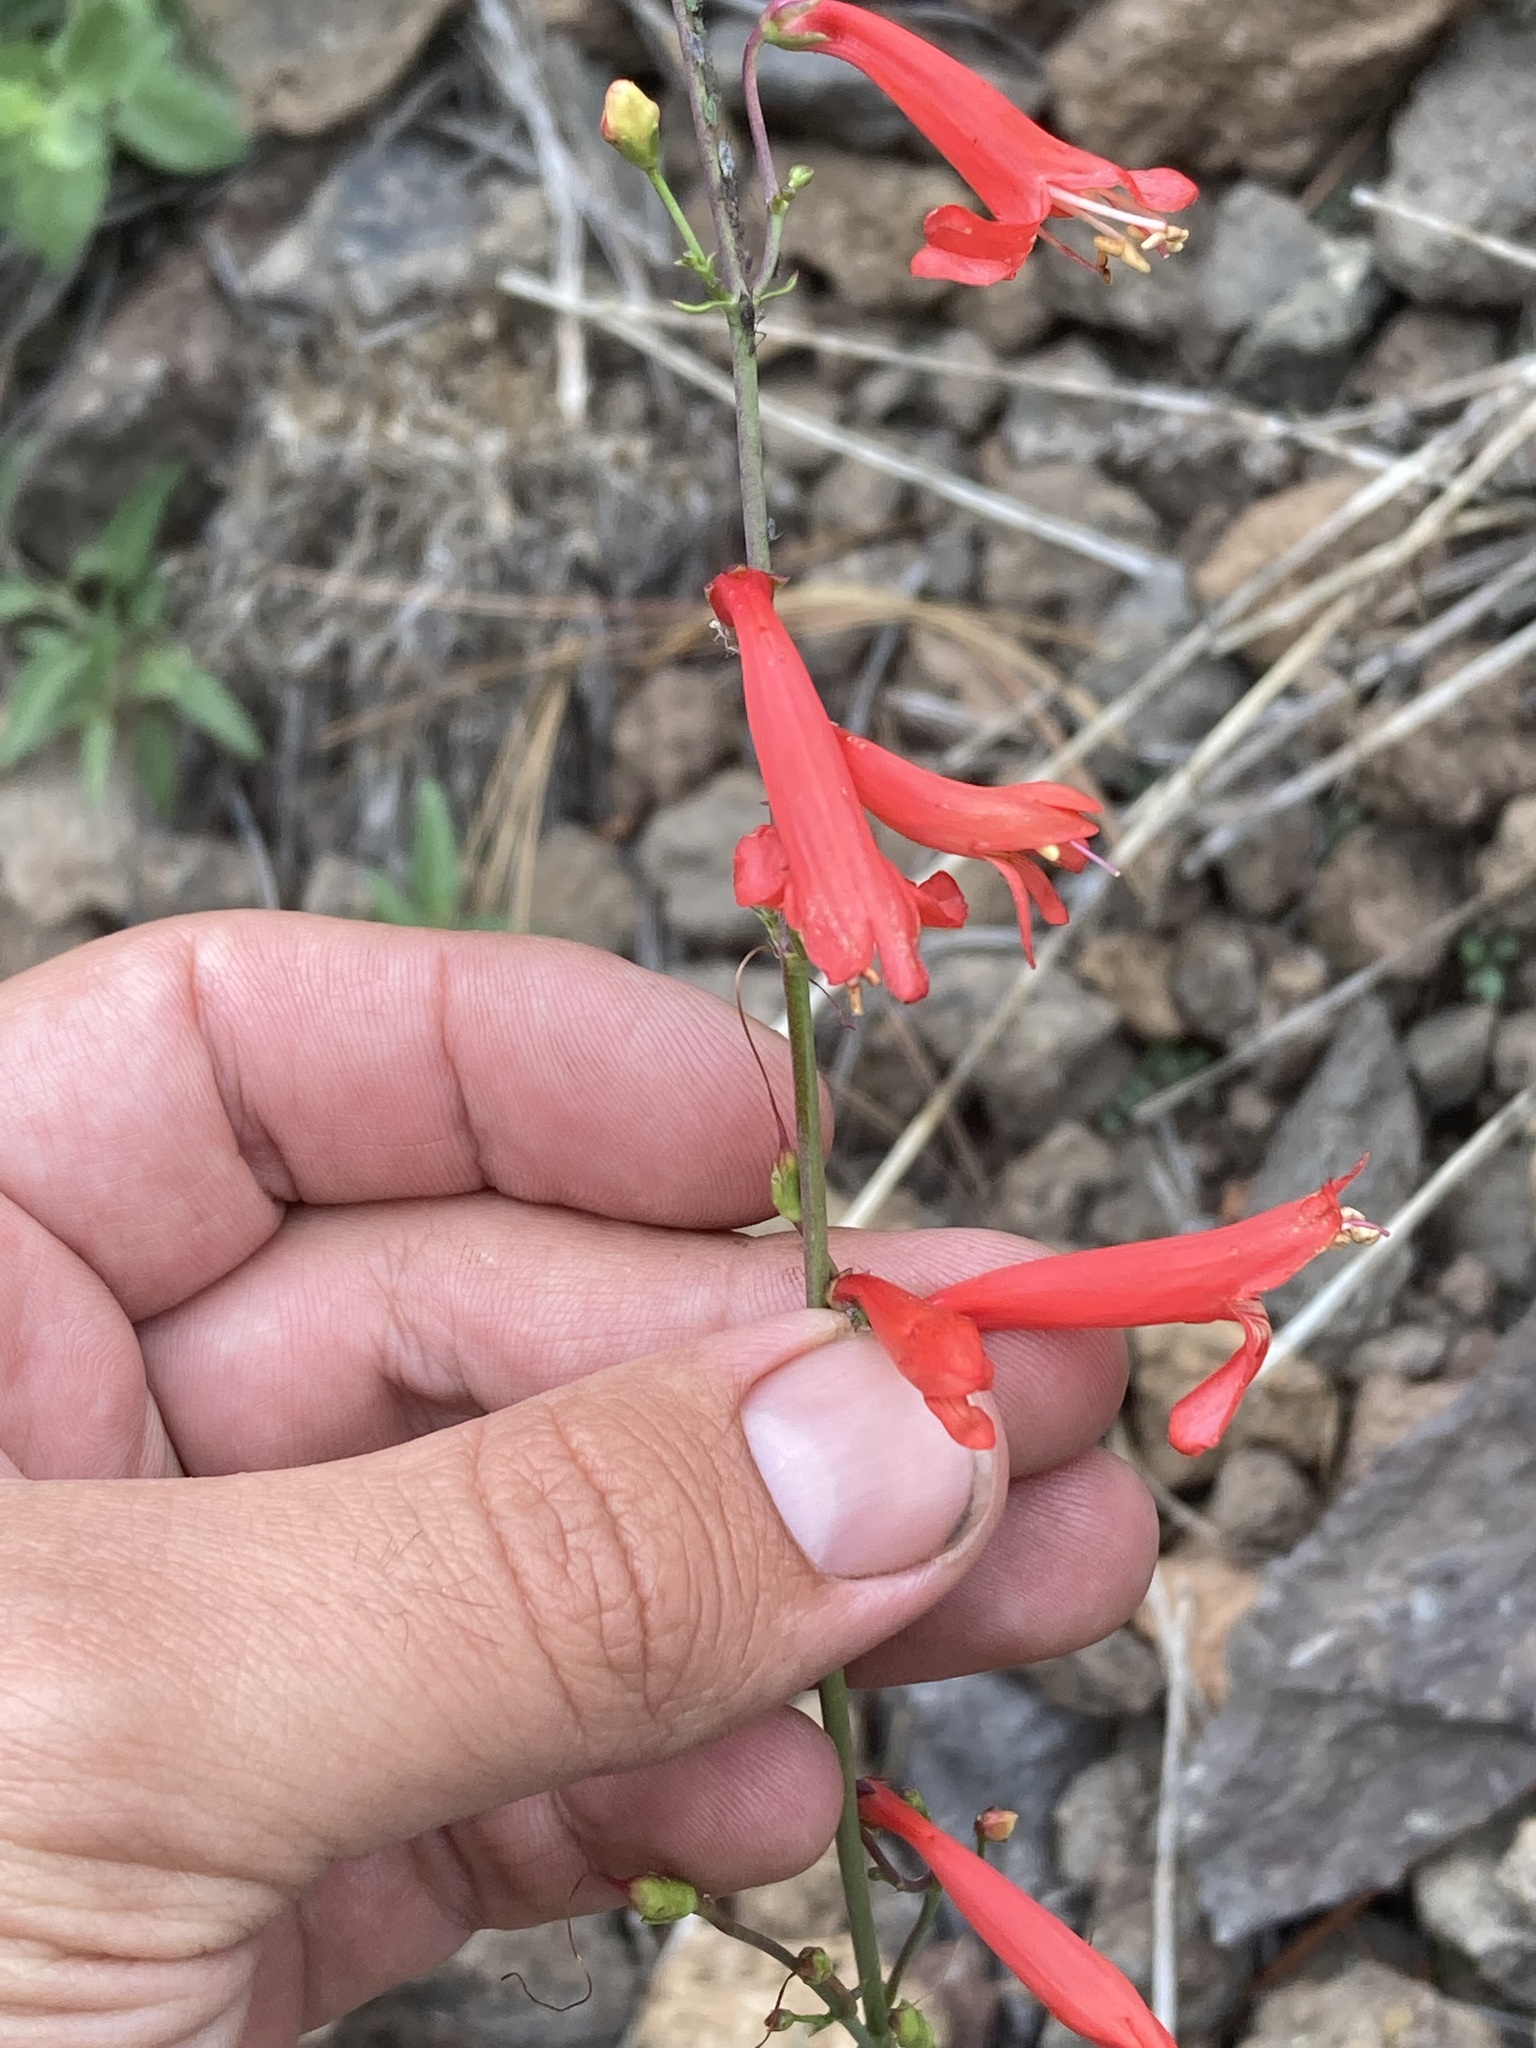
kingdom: Plantae
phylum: Tracheophyta
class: Magnoliopsida
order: Lamiales
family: Plantaginaceae
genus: Penstemon
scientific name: Penstemon barbatus
